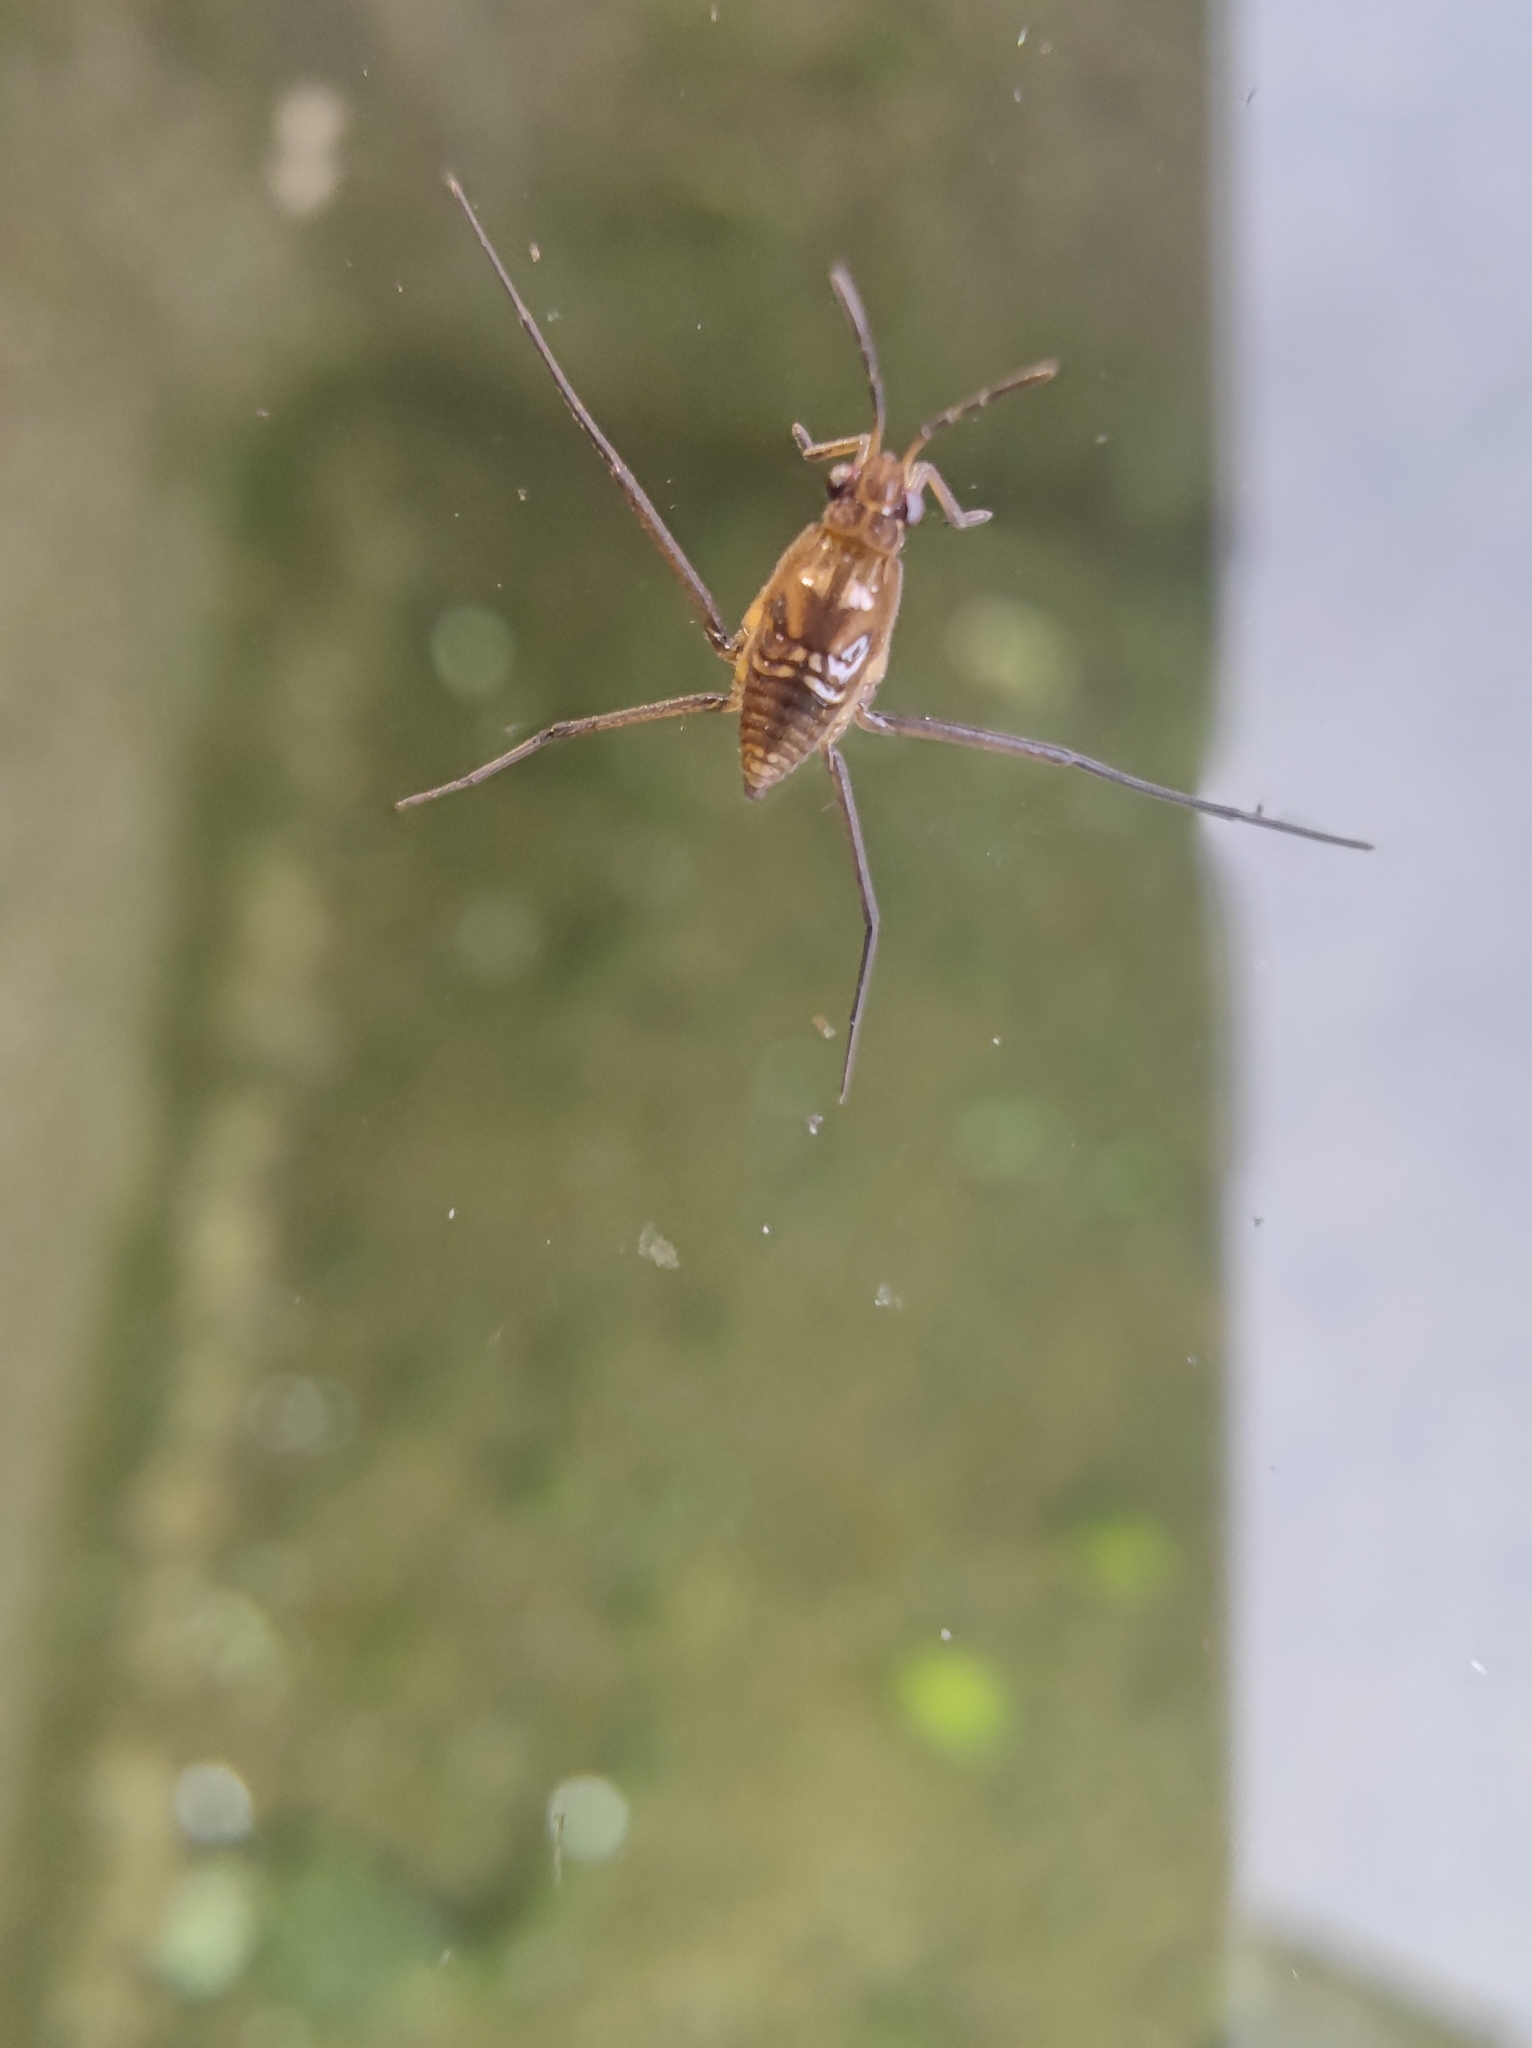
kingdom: Animalia
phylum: Arthropoda
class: Insecta
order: Hemiptera
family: Gerridae
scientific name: Gerridae
